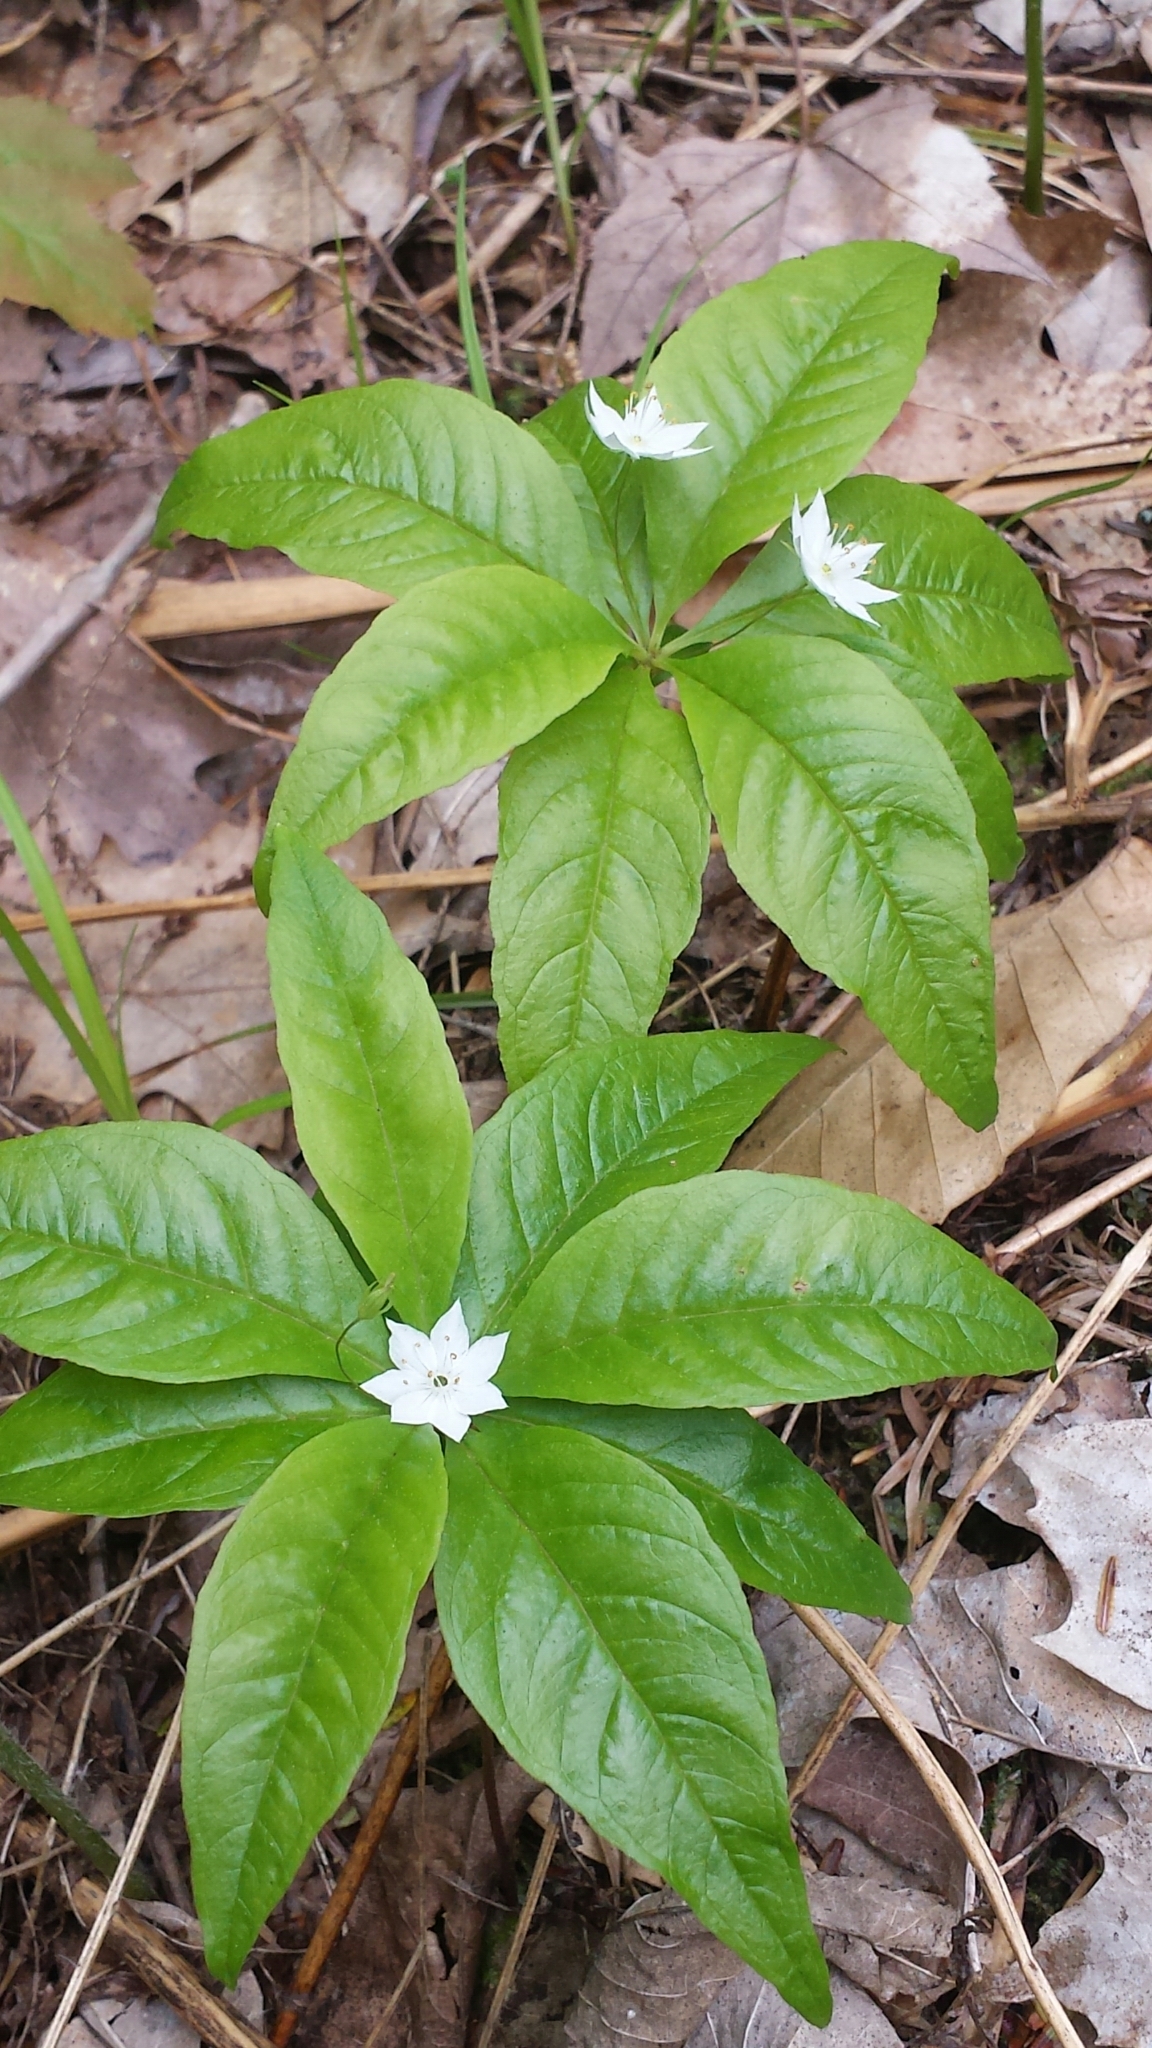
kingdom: Plantae
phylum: Tracheophyta
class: Magnoliopsida
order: Ericales
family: Primulaceae
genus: Lysimachia
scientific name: Lysimachia borealis
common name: American starflower
